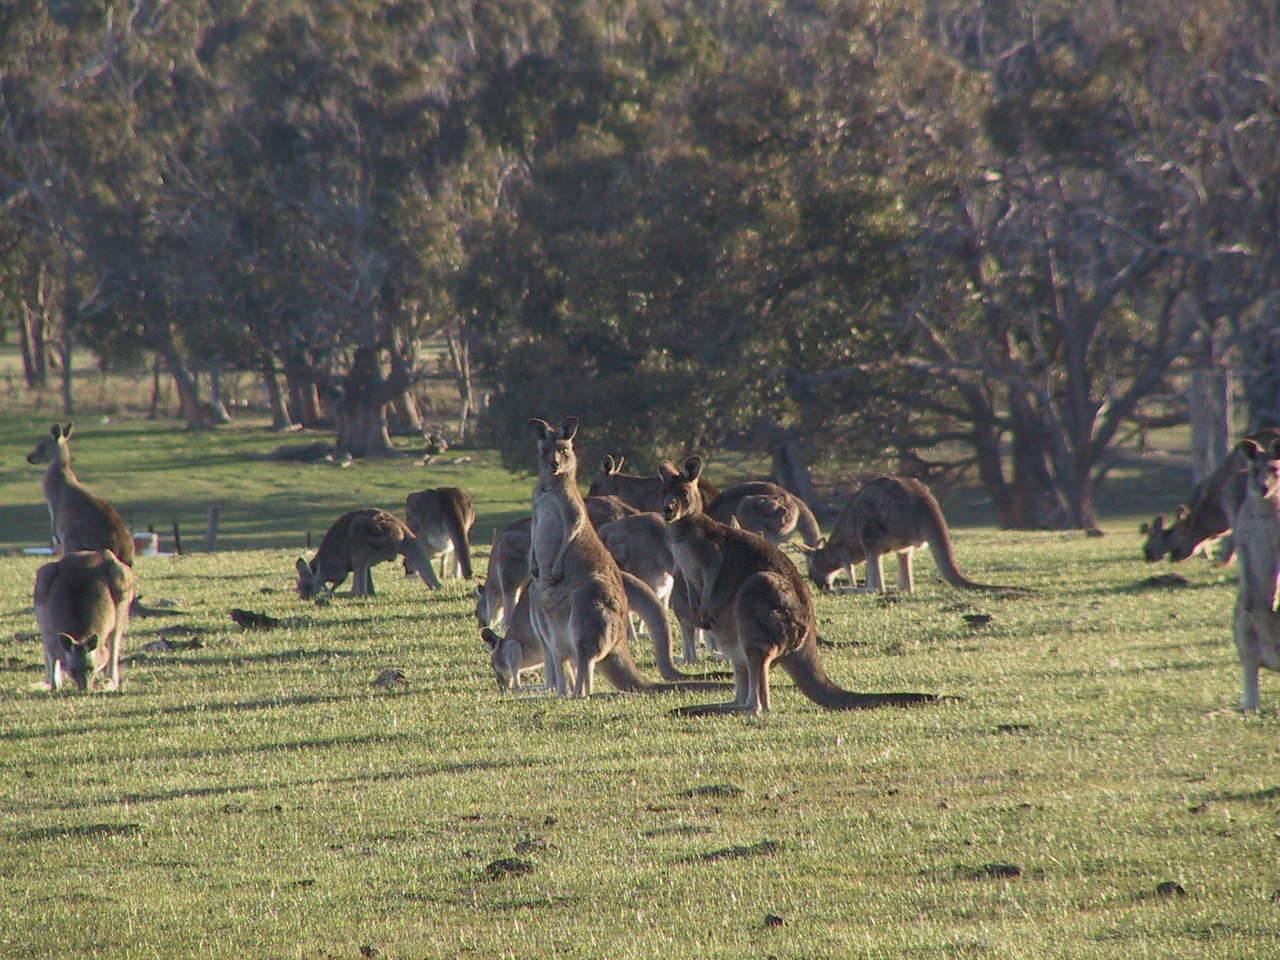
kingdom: Animalia
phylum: Chordata
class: Mammalia
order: Diprotodontia
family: Macropodidae
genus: Macropus
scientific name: Macropus giganteus
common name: Eastern grey kangaroo
